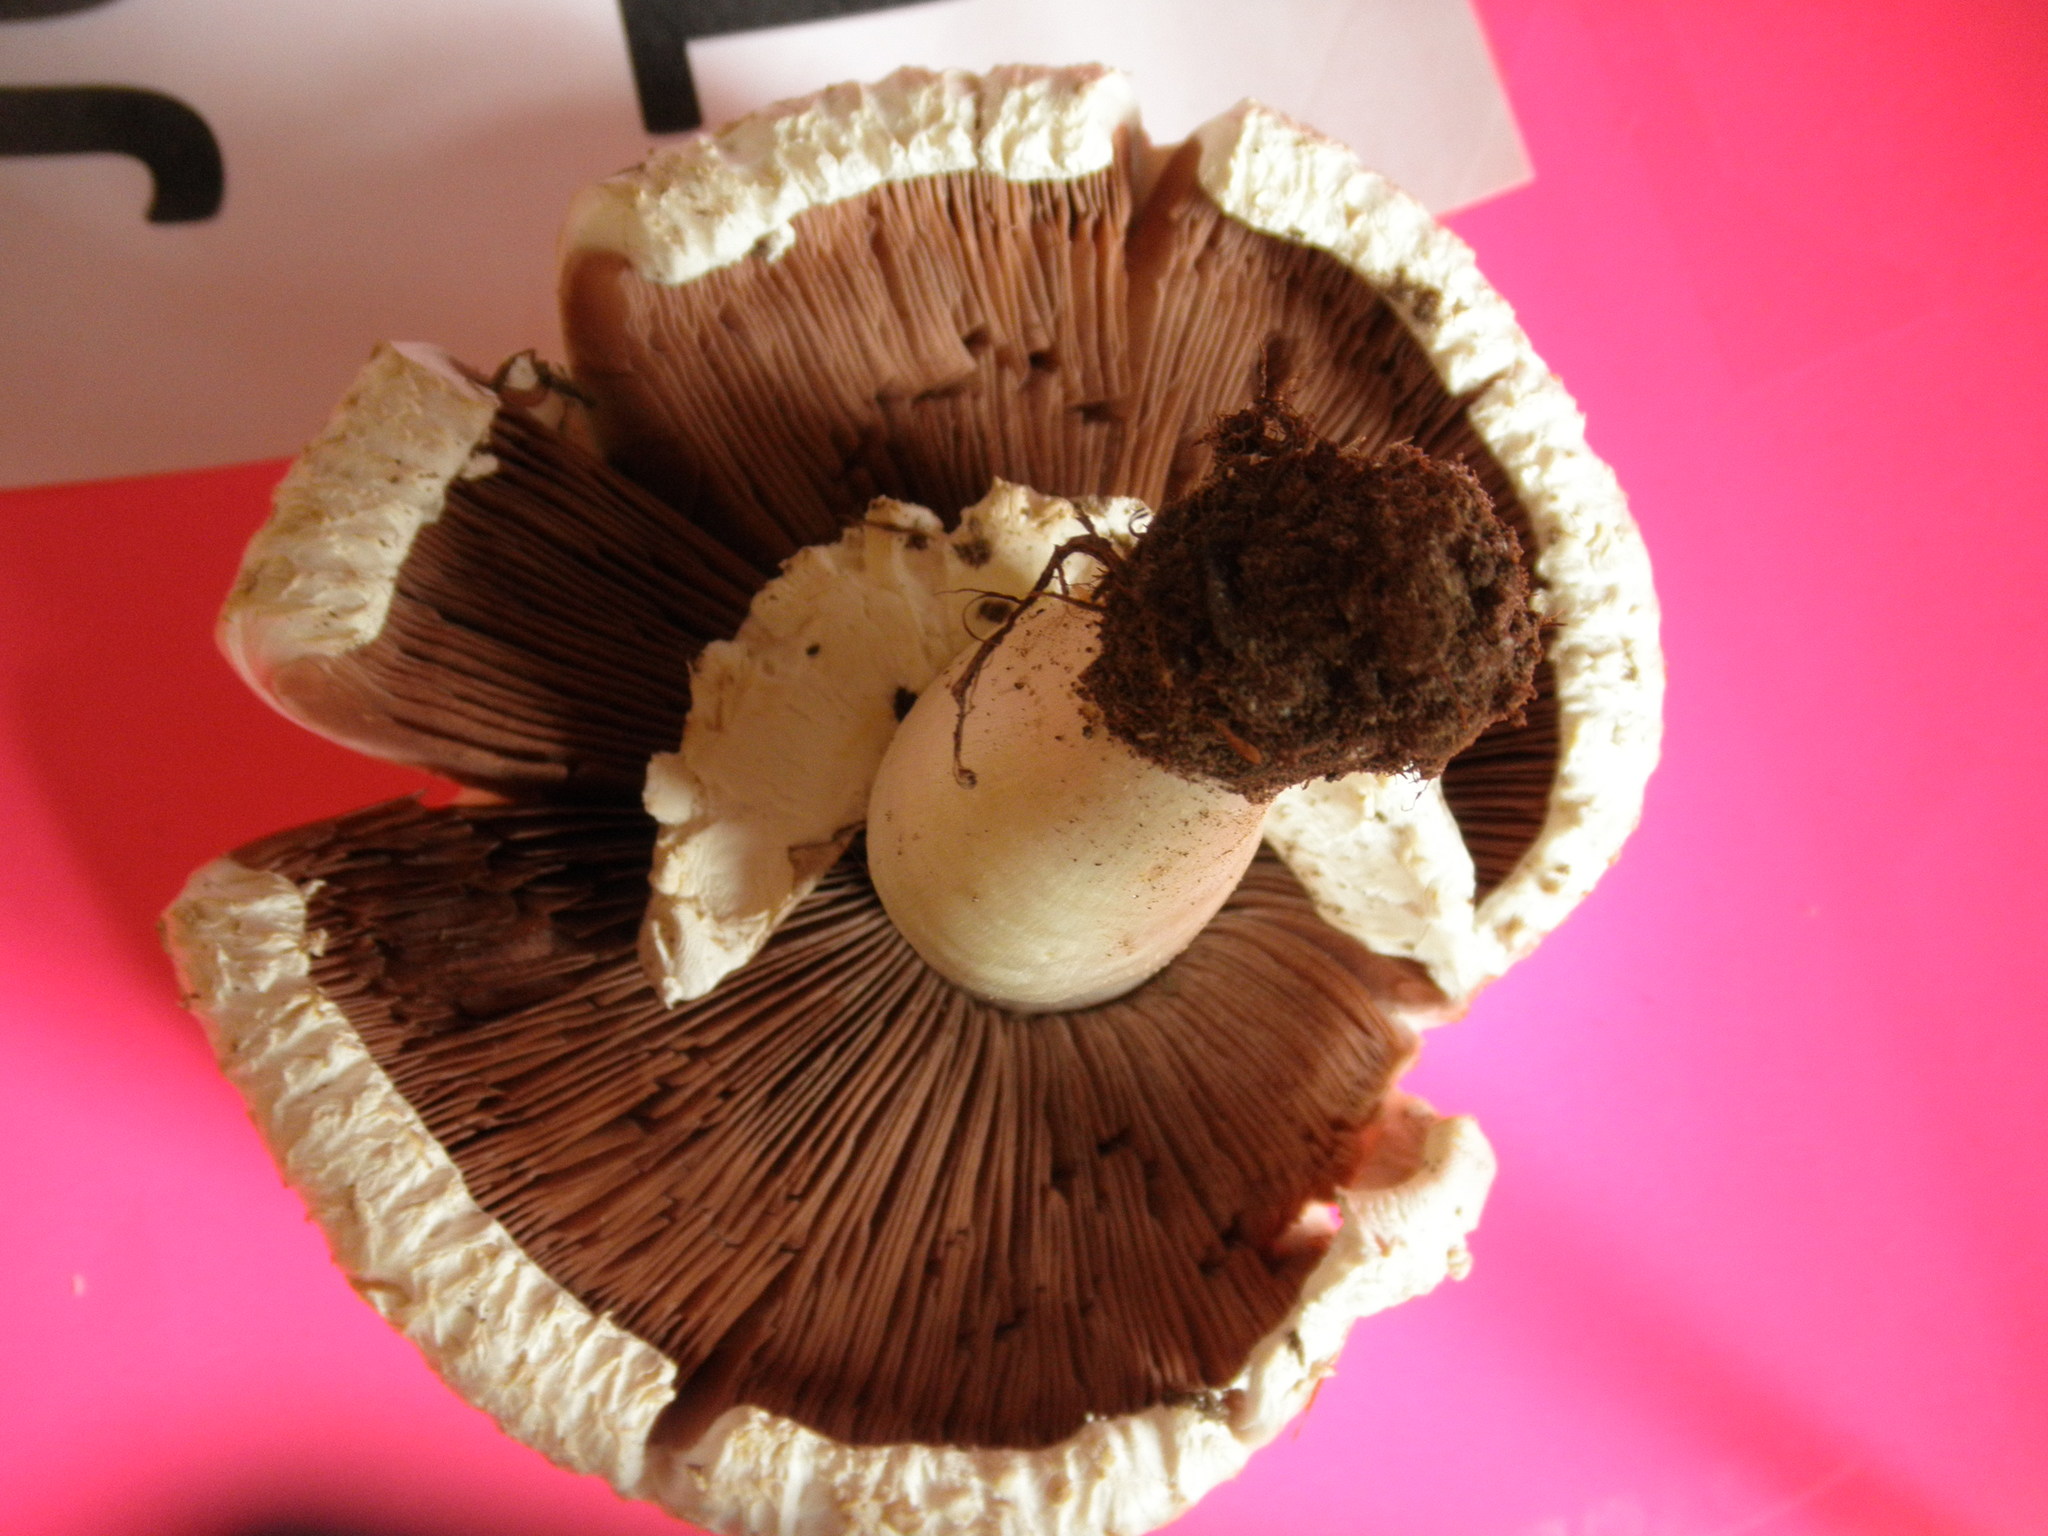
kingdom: Fungi
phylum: Basidiomycota
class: Agaricomycetes
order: Agaricales
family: Agaricaceae
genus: Agaricus
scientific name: Agaricus crocodilinus
